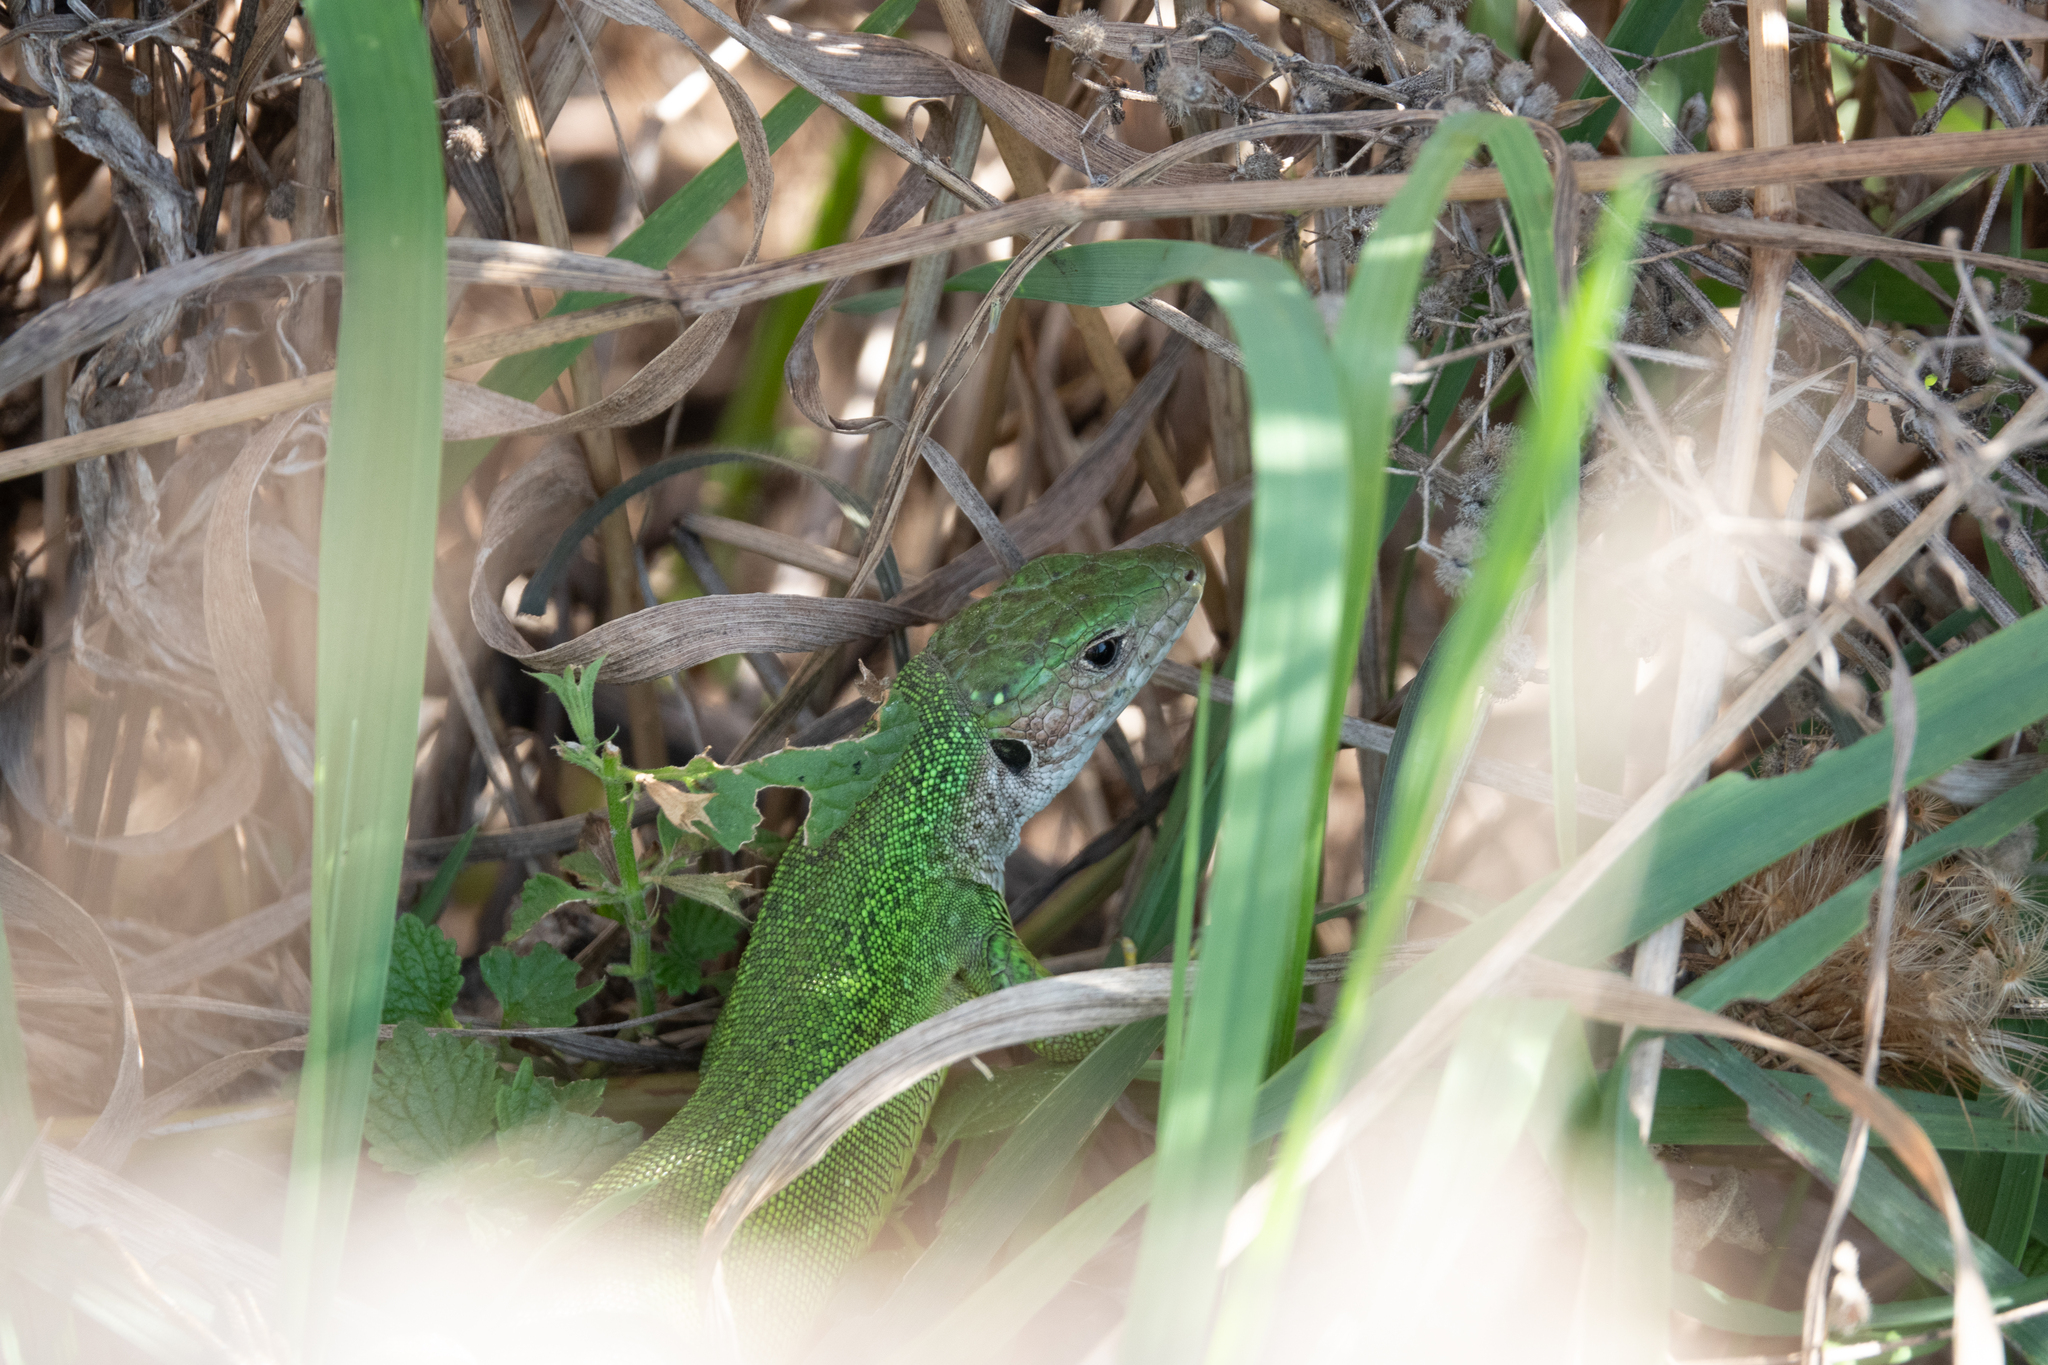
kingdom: Animalia
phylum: Chordata
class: Squamata
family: Lacertidae
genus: Lacerta
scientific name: Lacerta viridis
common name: European green lizard
